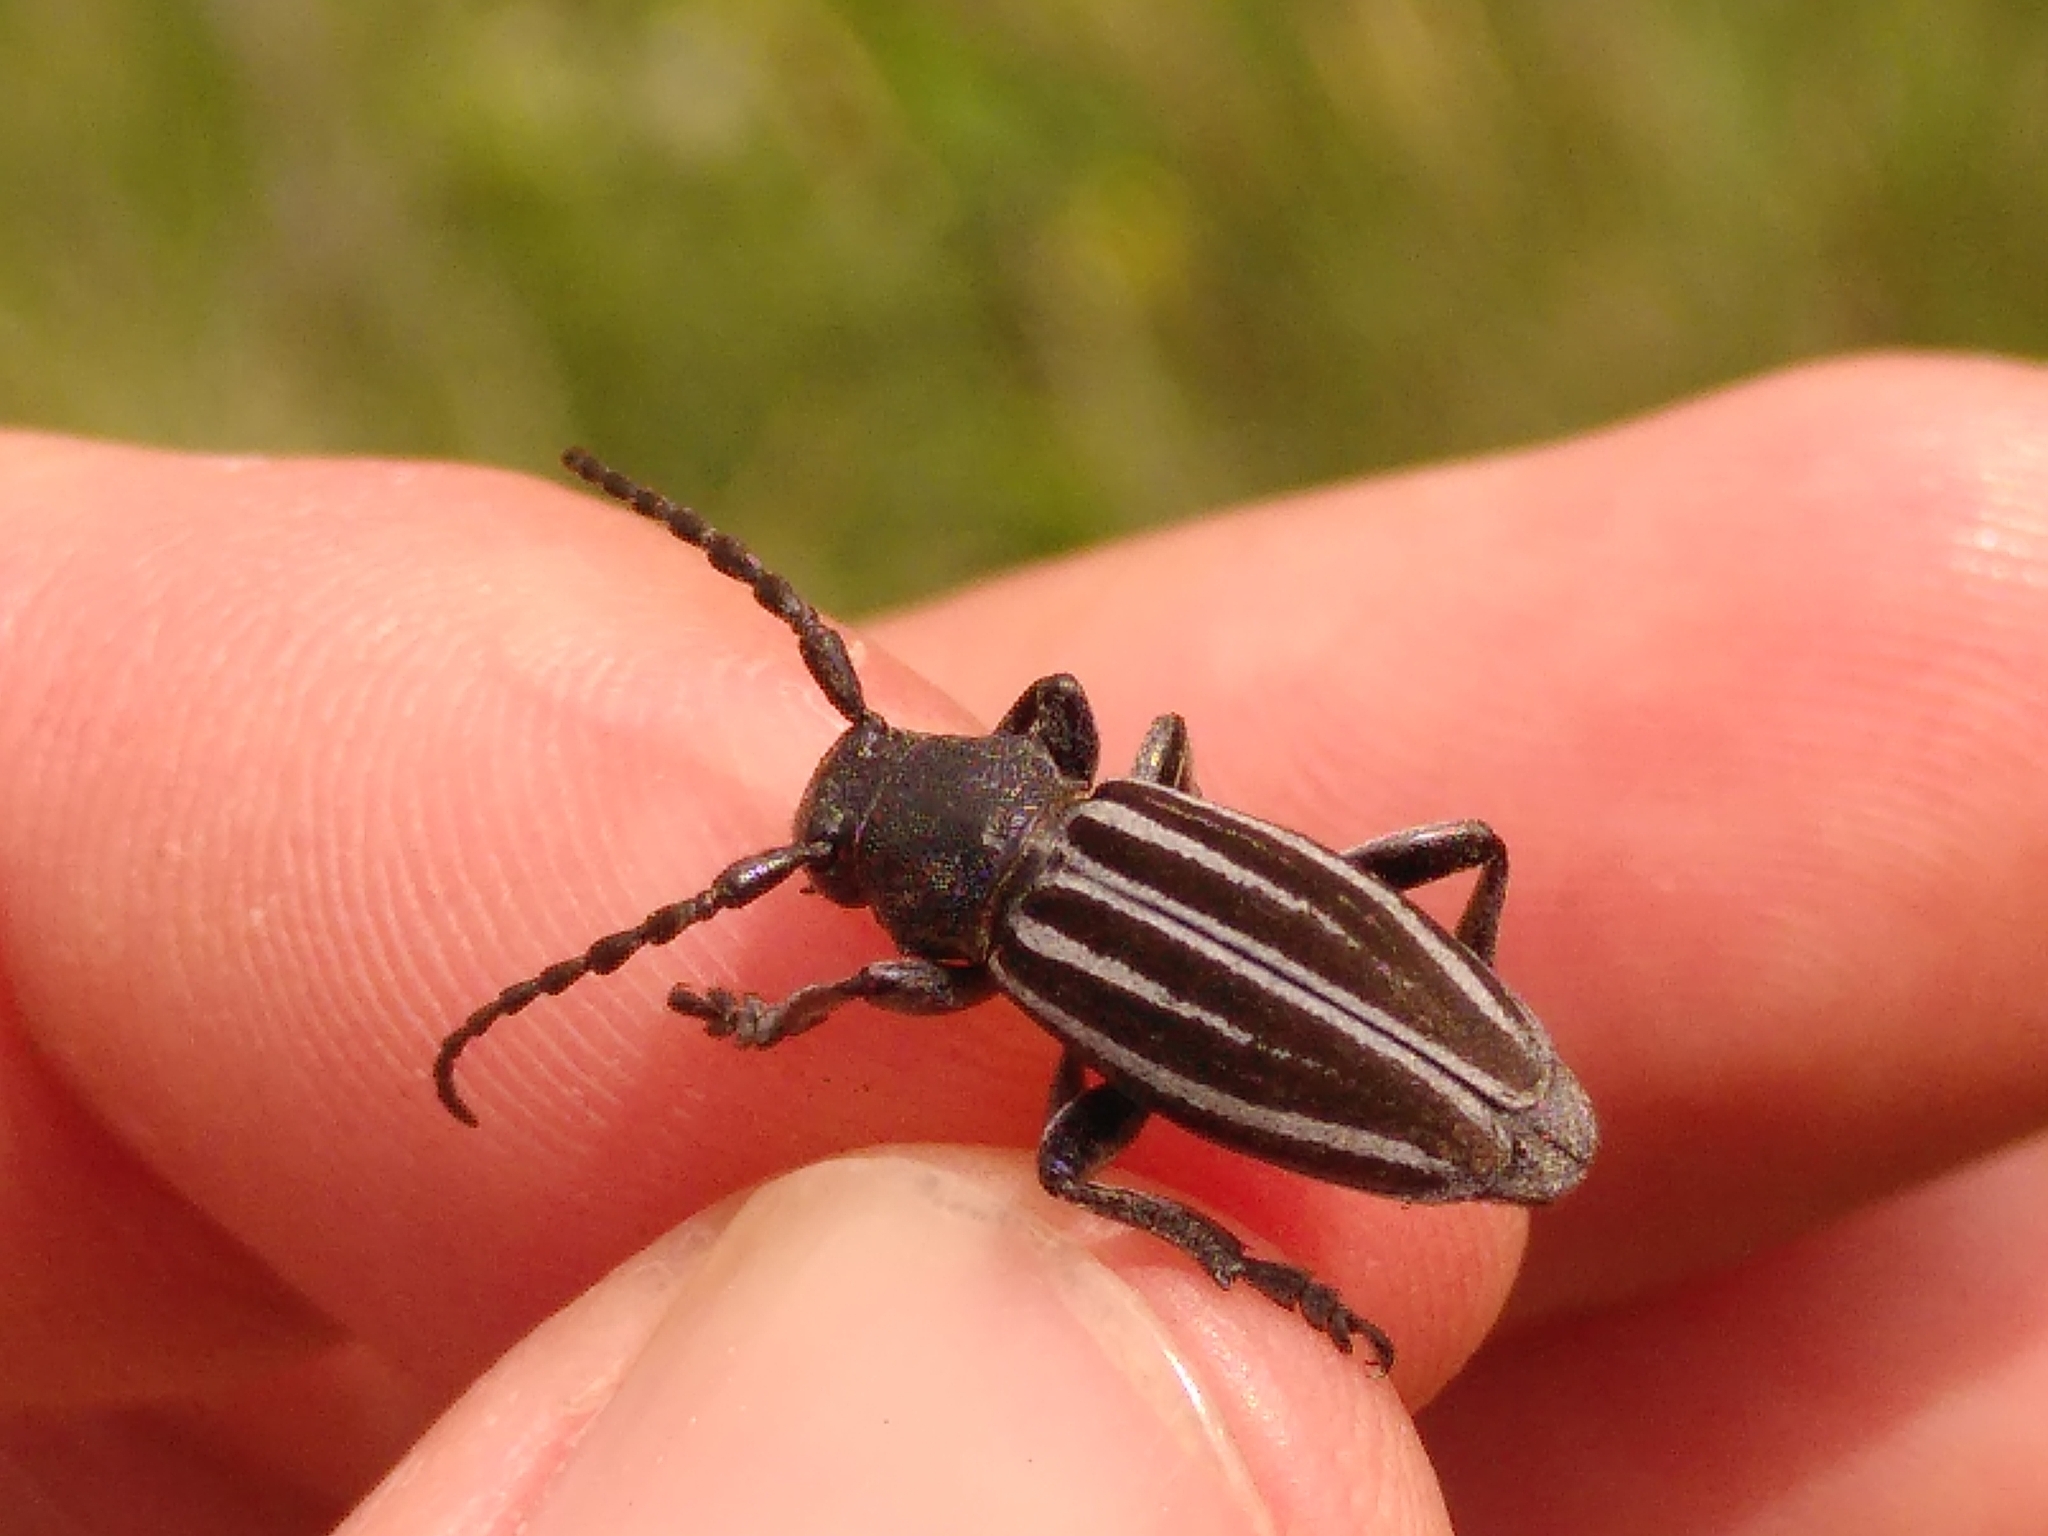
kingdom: Animalia
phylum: Arthropoda
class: Insecta
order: Coleoptera
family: Cerambycidae
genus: Iberodorcadion
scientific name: Iberodorcadion fuliginator
